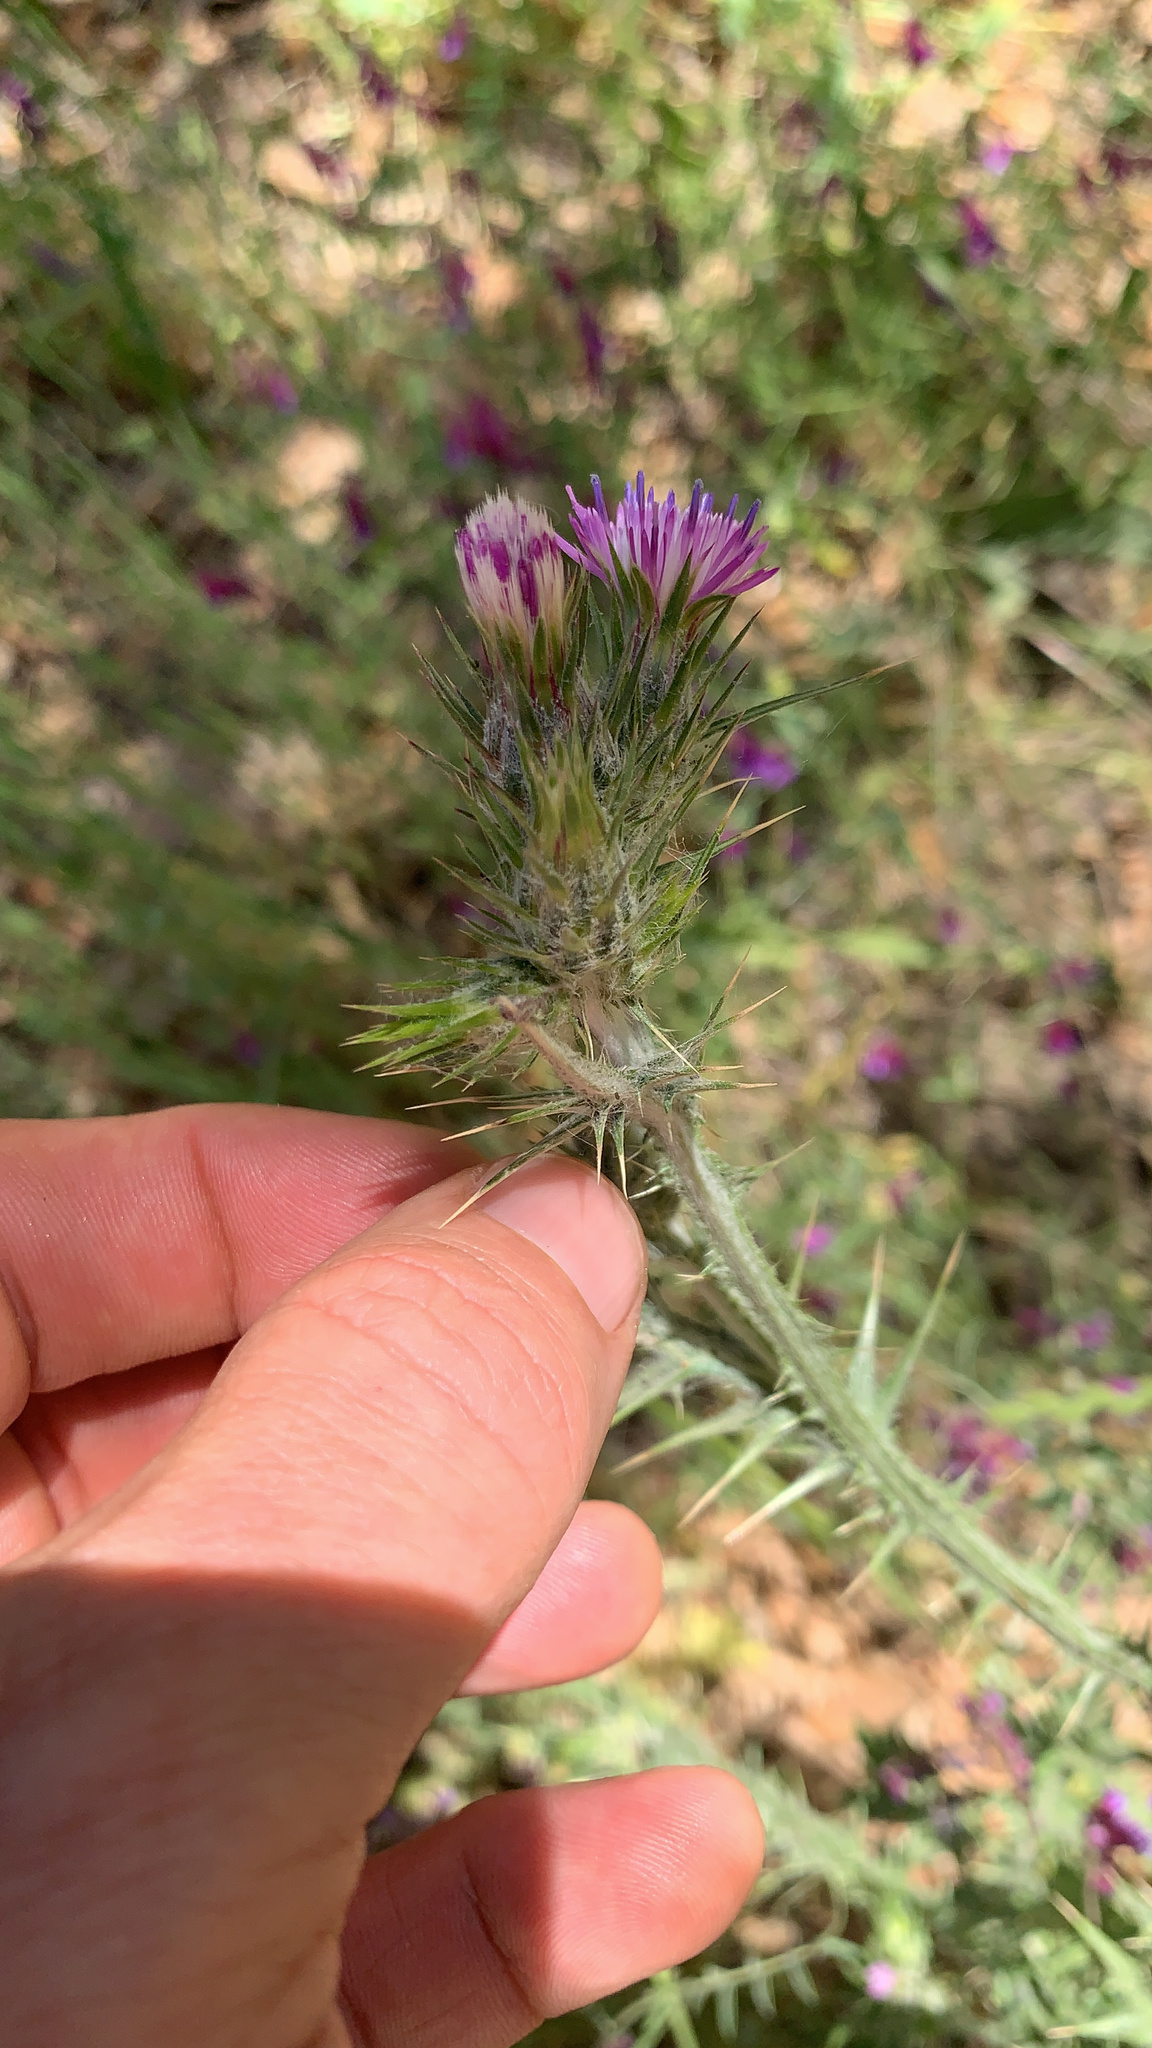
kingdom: Plantae
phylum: Tracheophyta
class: Magnoliopsida
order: Asterales
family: Asteraceae
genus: Carduus
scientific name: Carduus pycnocephalus
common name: Plymouth thistle
